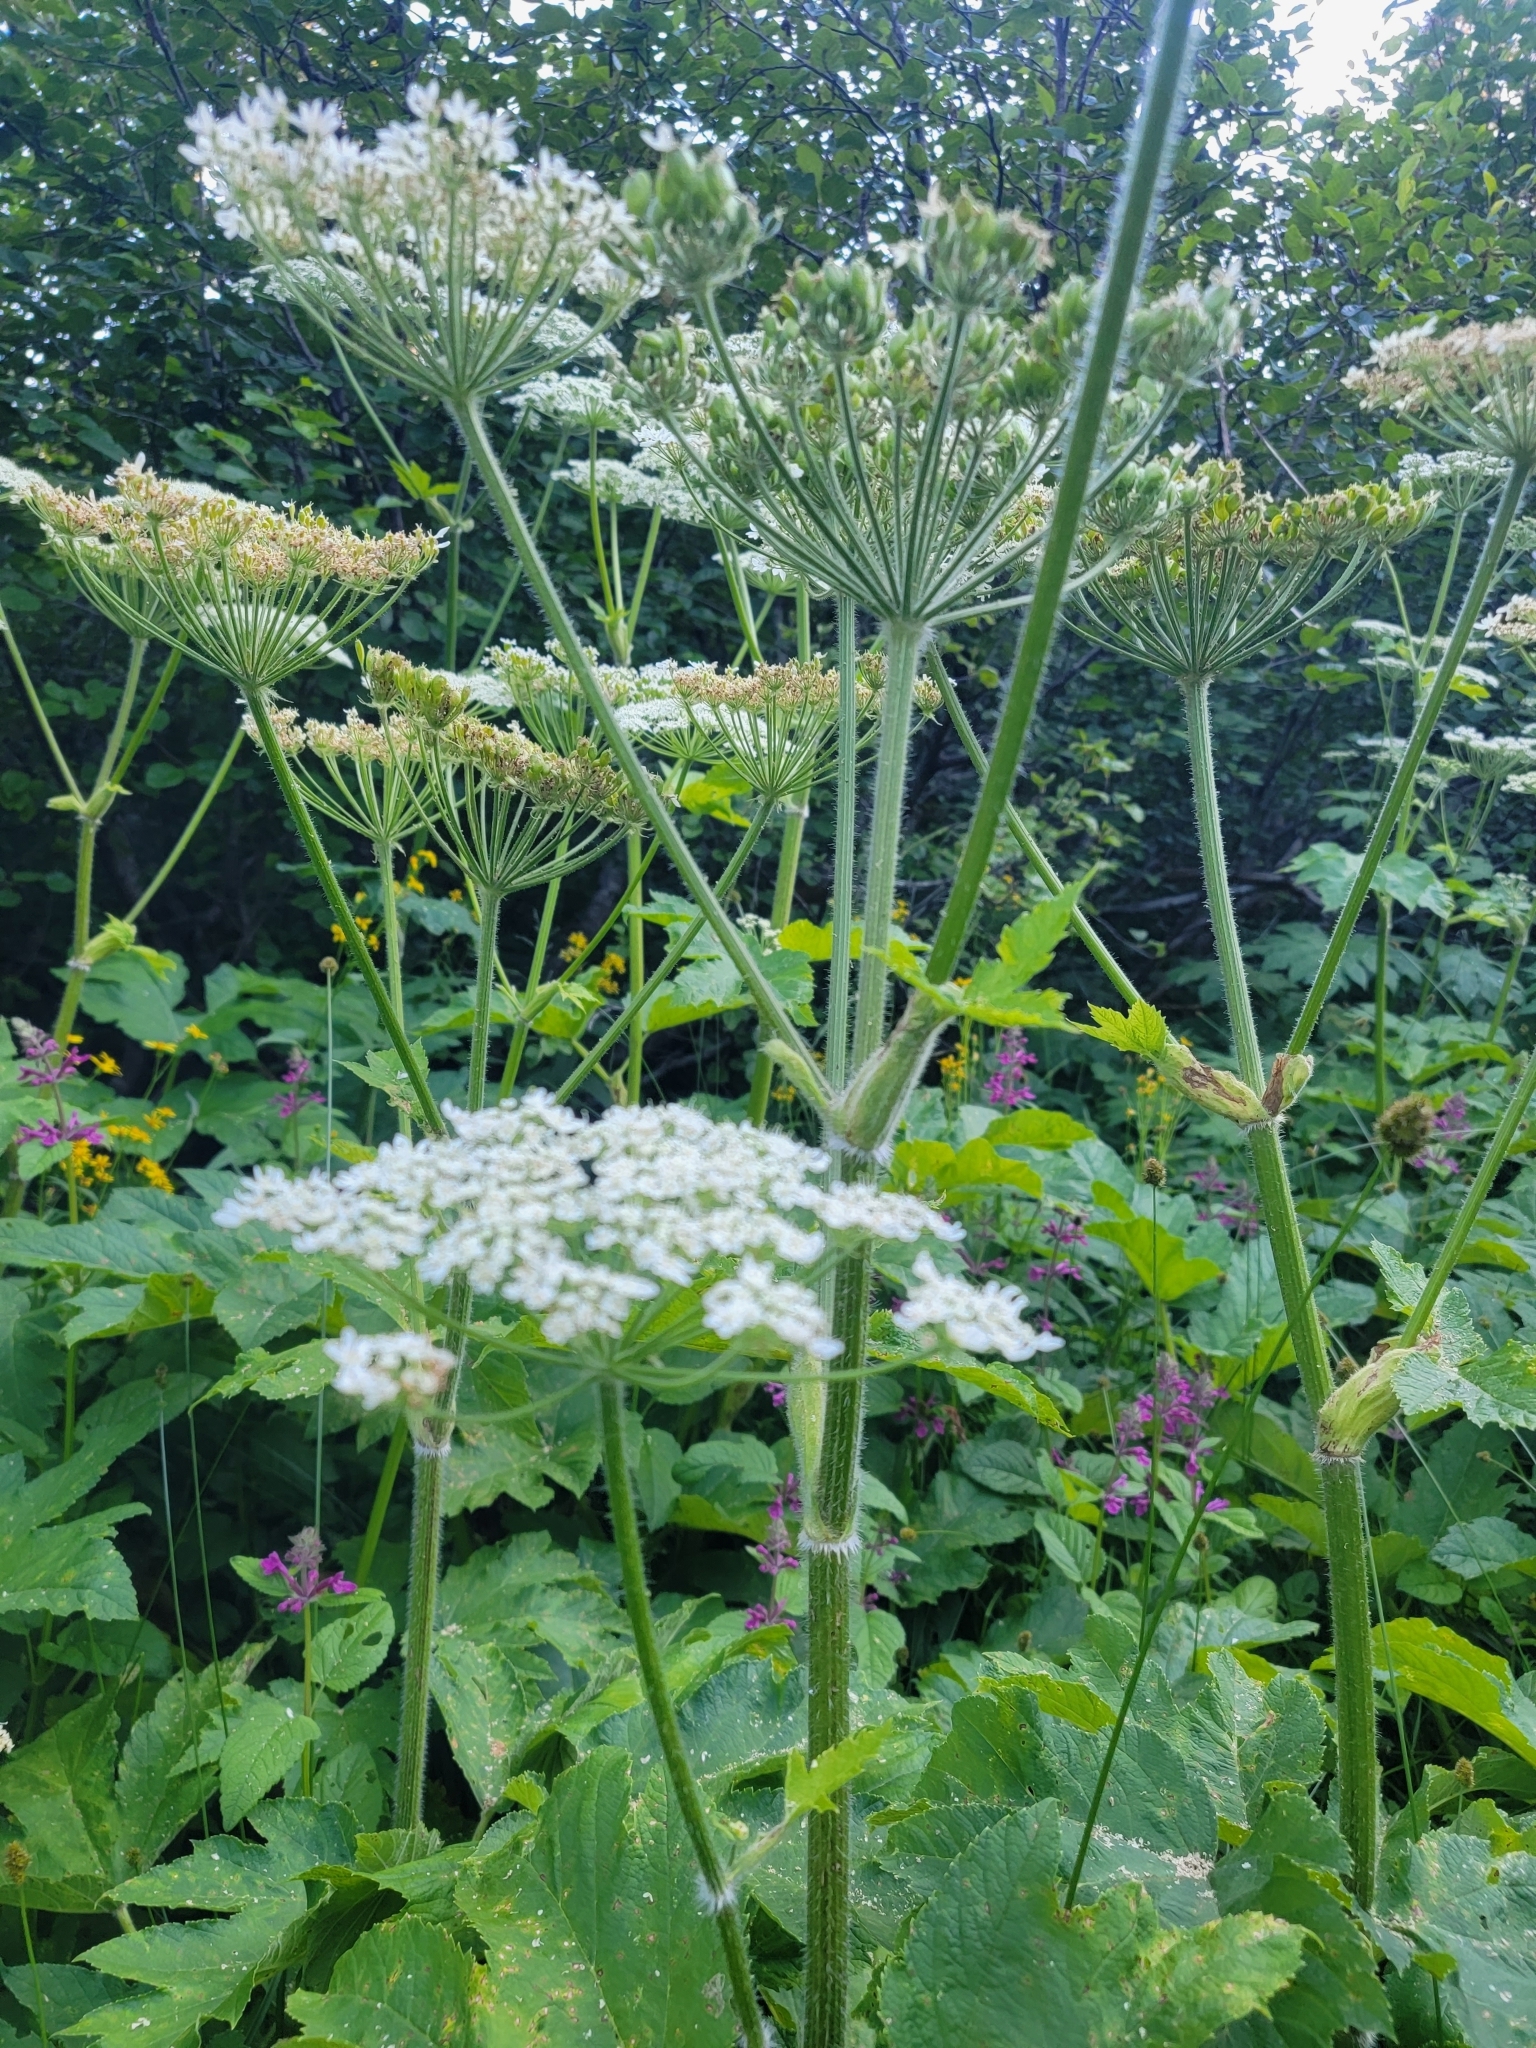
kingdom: Plantae
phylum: Tracheophyta
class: Magnoliopsida
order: Apiales
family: Apiaceae
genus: Heracleum
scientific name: Heracleum maximum
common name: American cow parsnip
